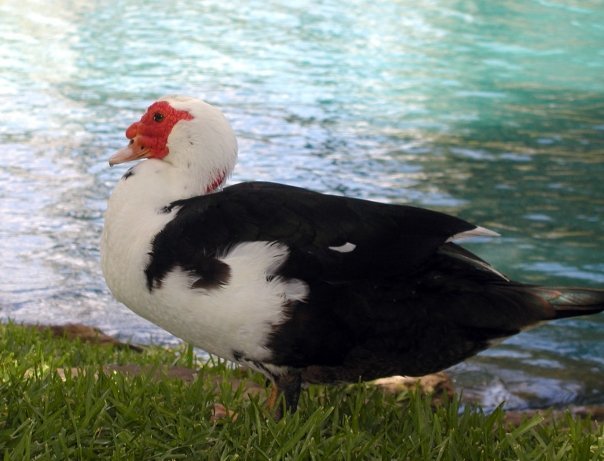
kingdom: Animalia
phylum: Chordata
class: Aves
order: Anseriformes
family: Anatidae
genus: Cairina
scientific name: Cairina moschata
